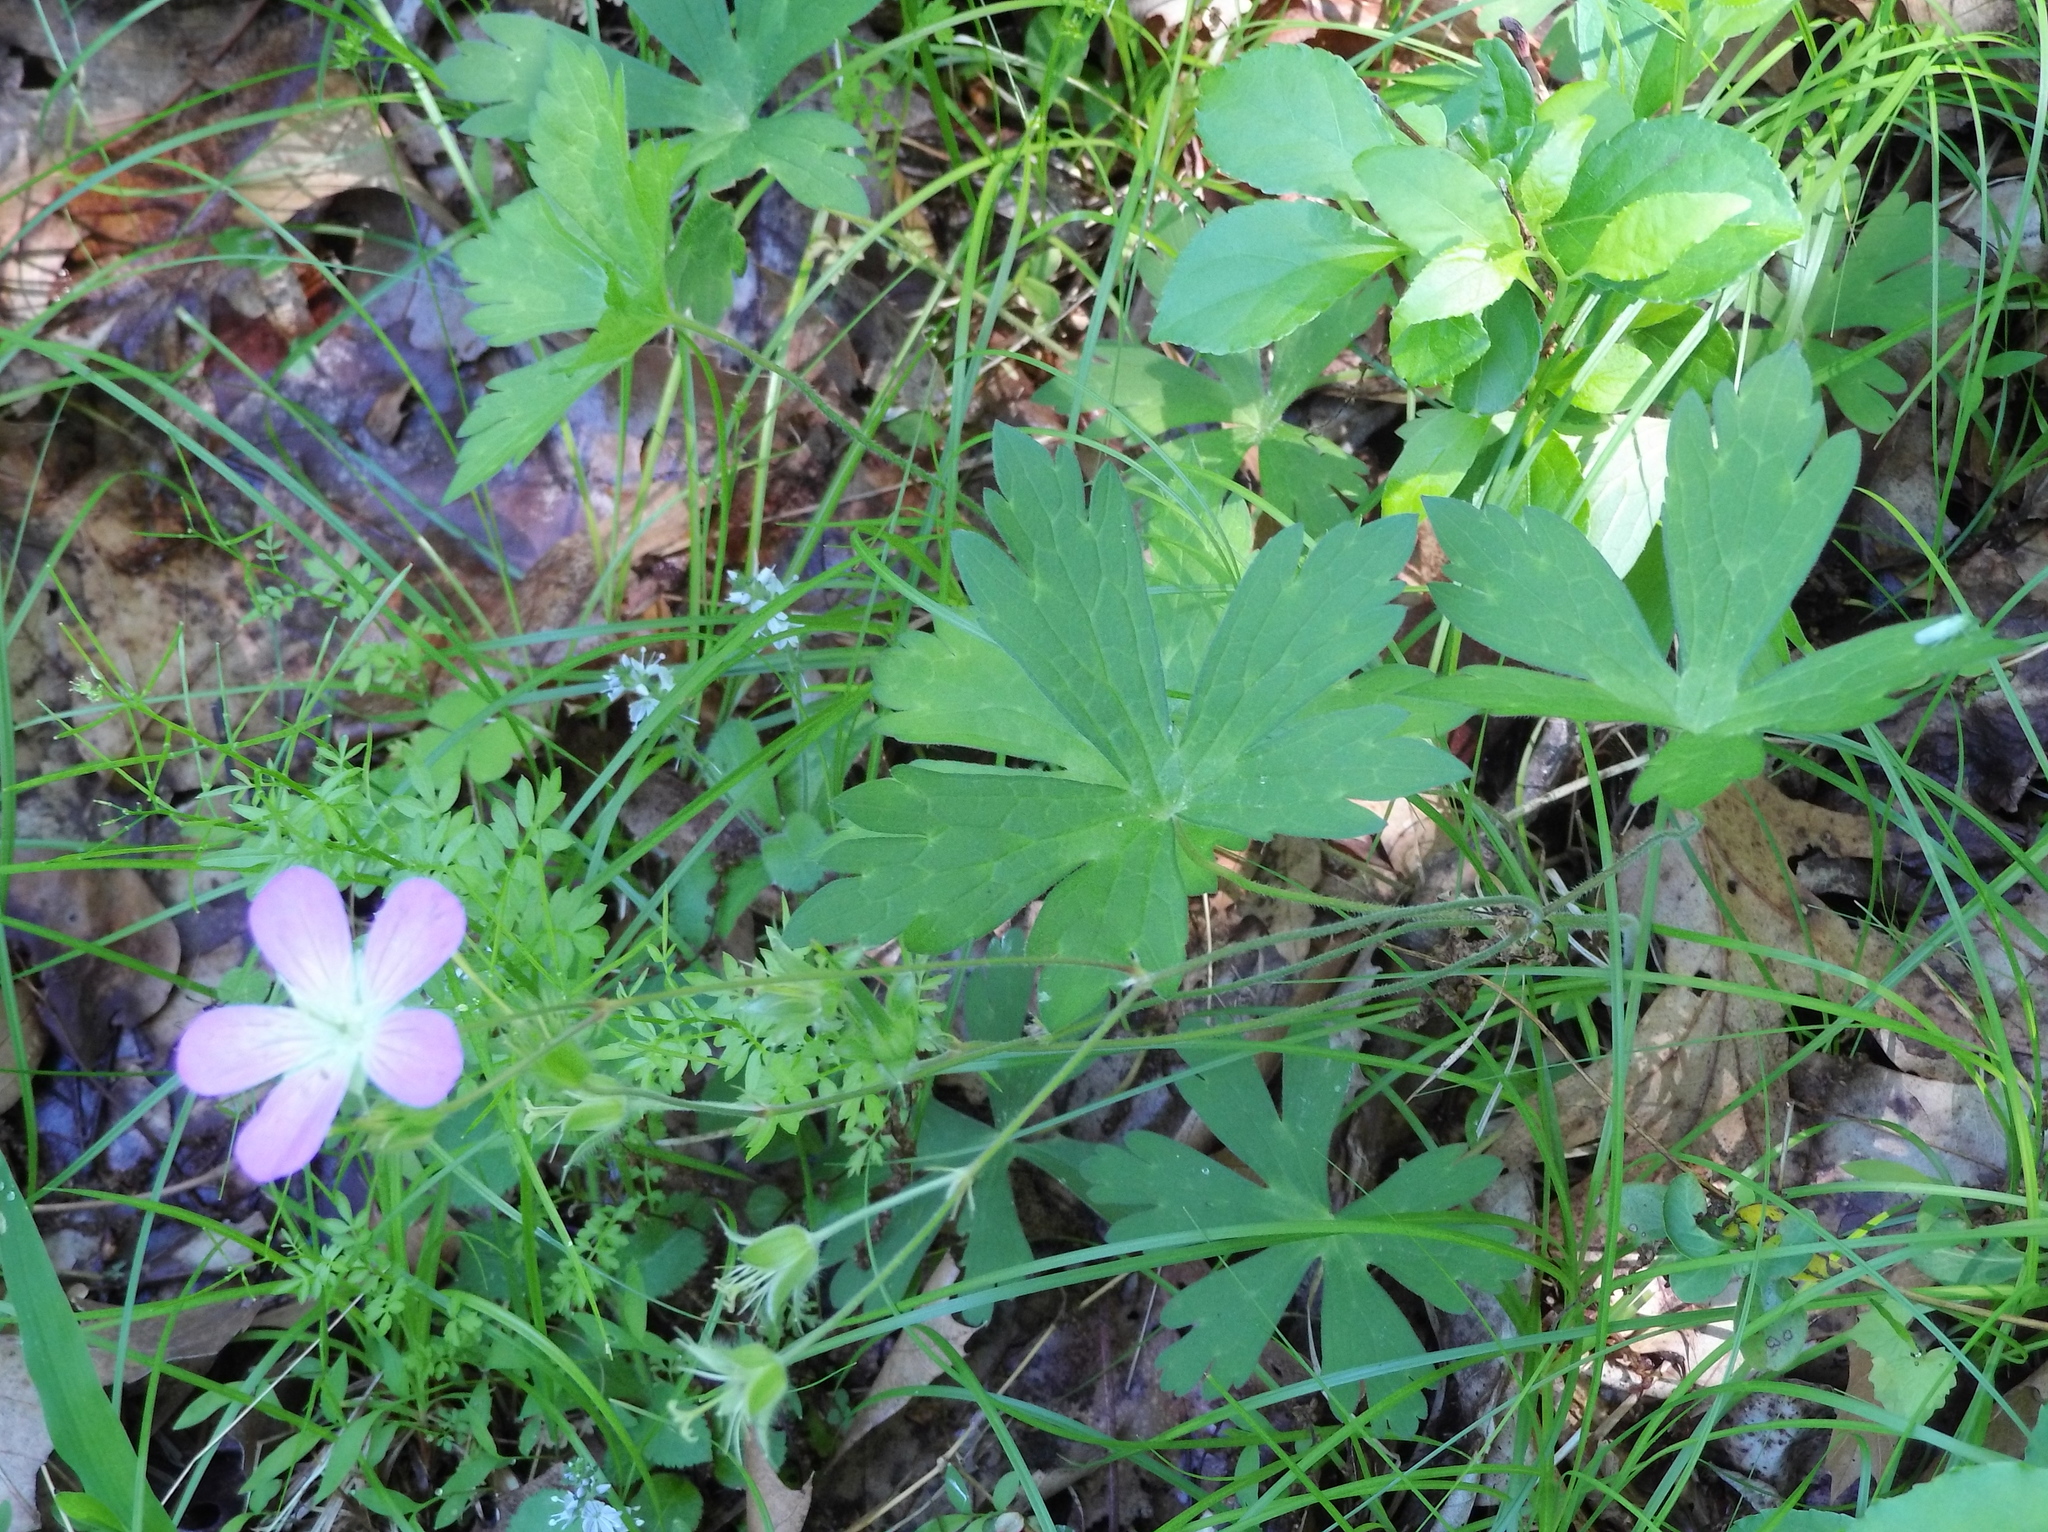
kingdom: Plantae
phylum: Tracheophyta
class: Magnoliopsida
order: Geraniales
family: Geraniaceae
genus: Geranium
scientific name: Geranium maculatum
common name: Spotted geranium
